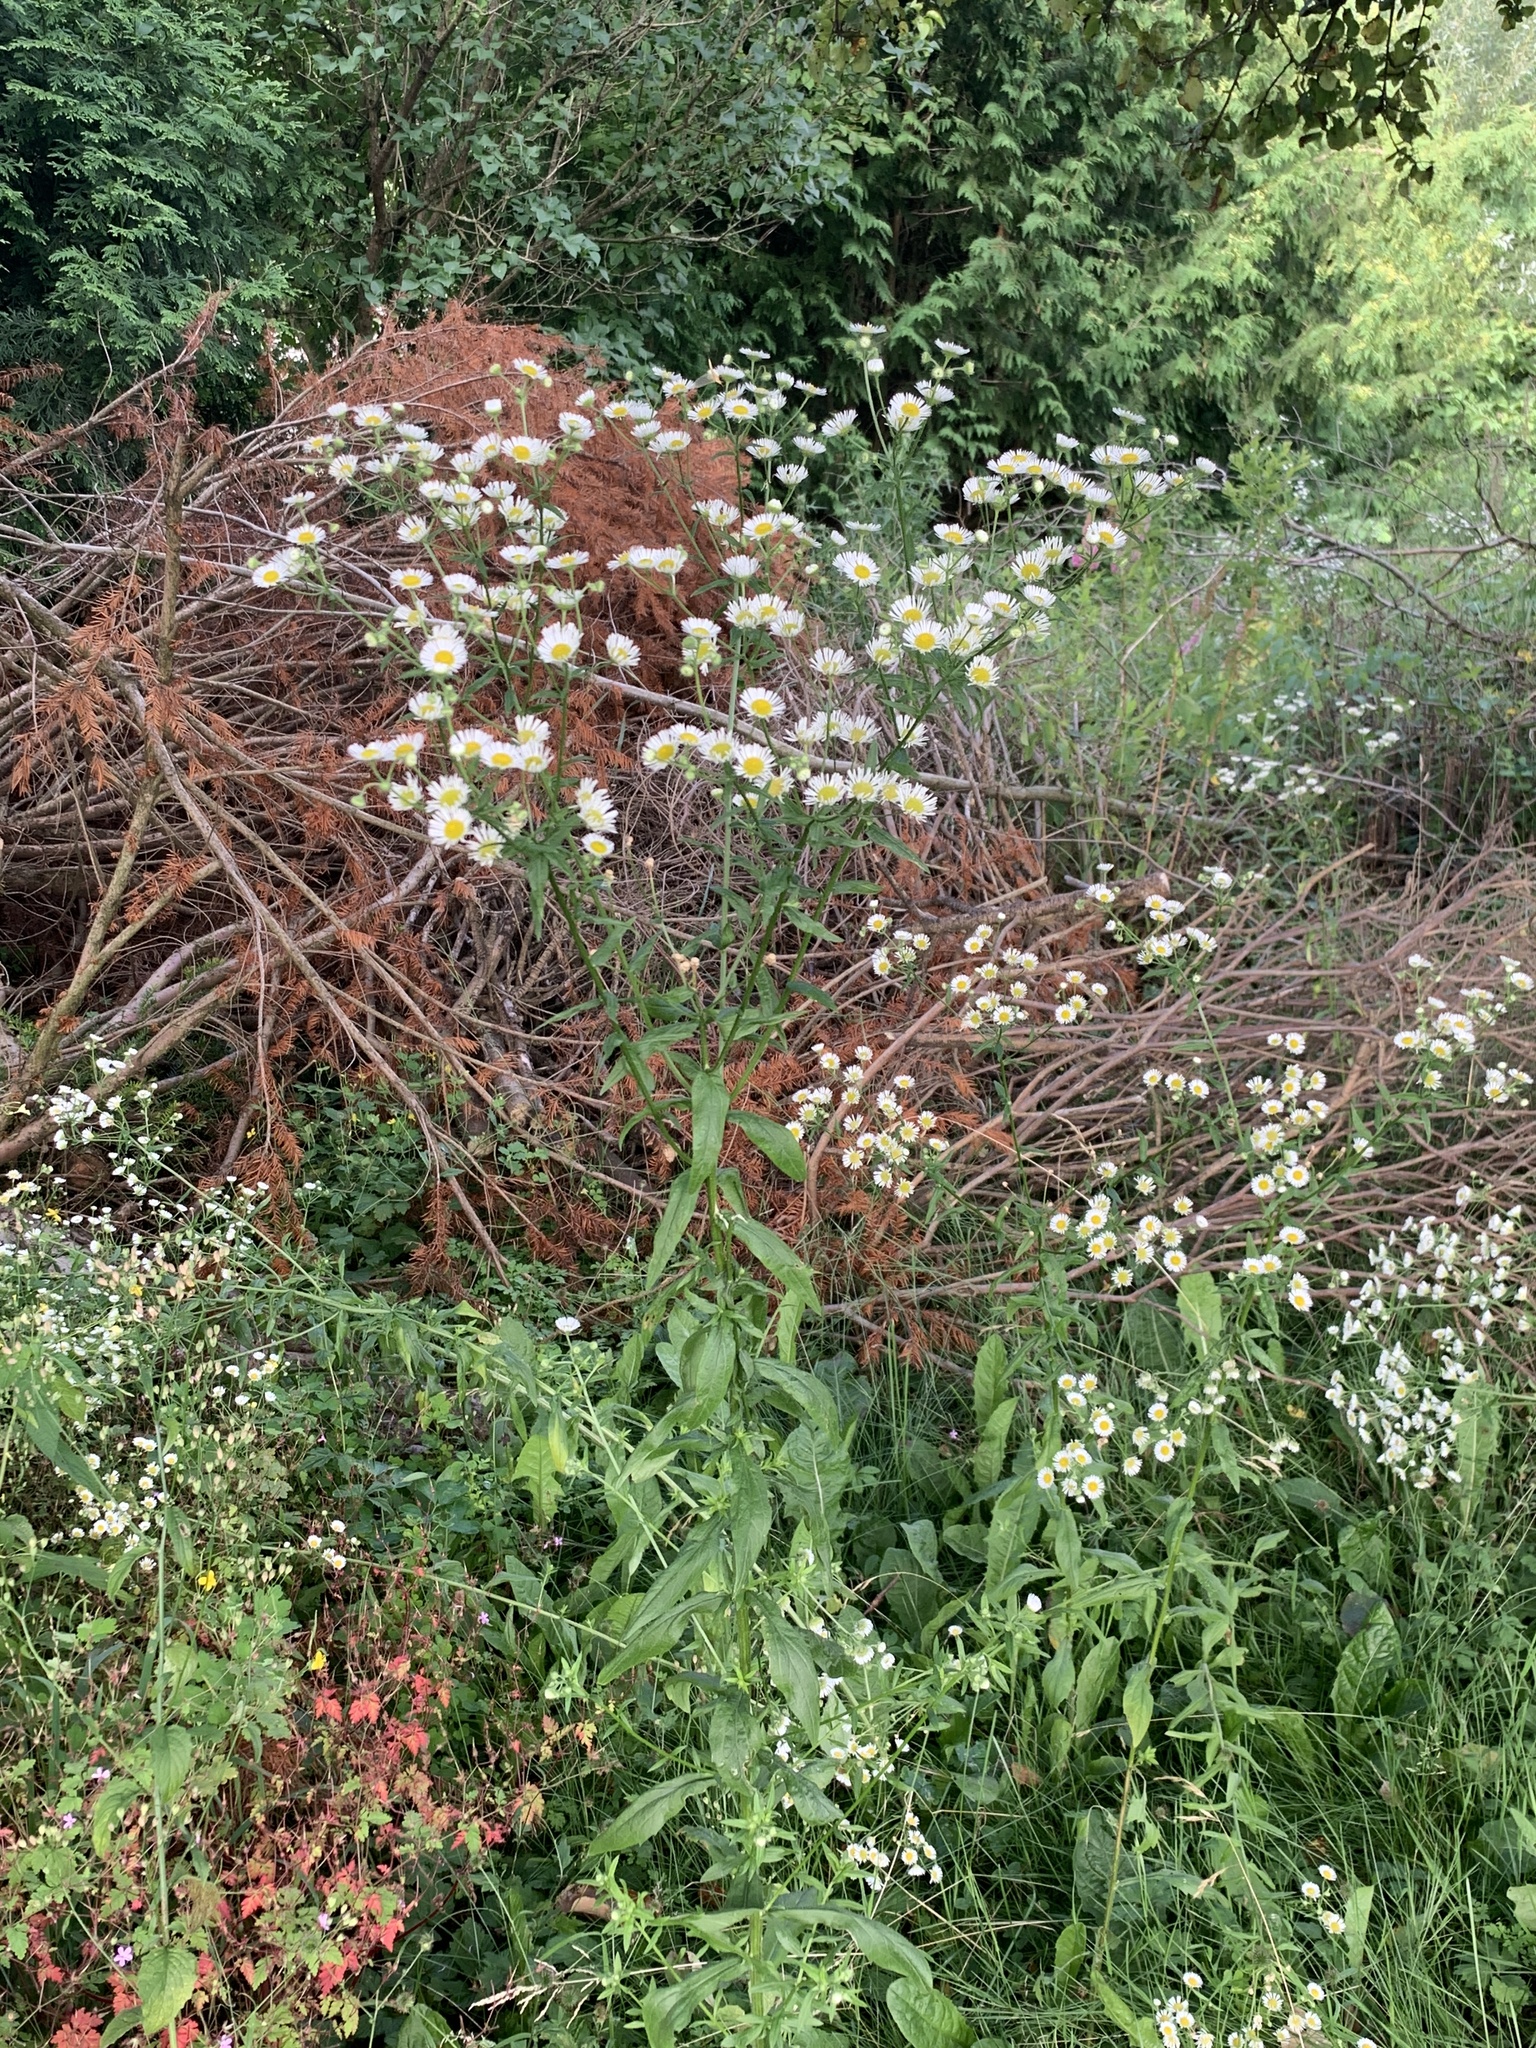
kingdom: Plantae
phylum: Tracheophyta
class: Magnoliopsida
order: Asterales
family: Asteraceae
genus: Erigeron
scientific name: Erigeron annuus
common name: Tall fleabane
